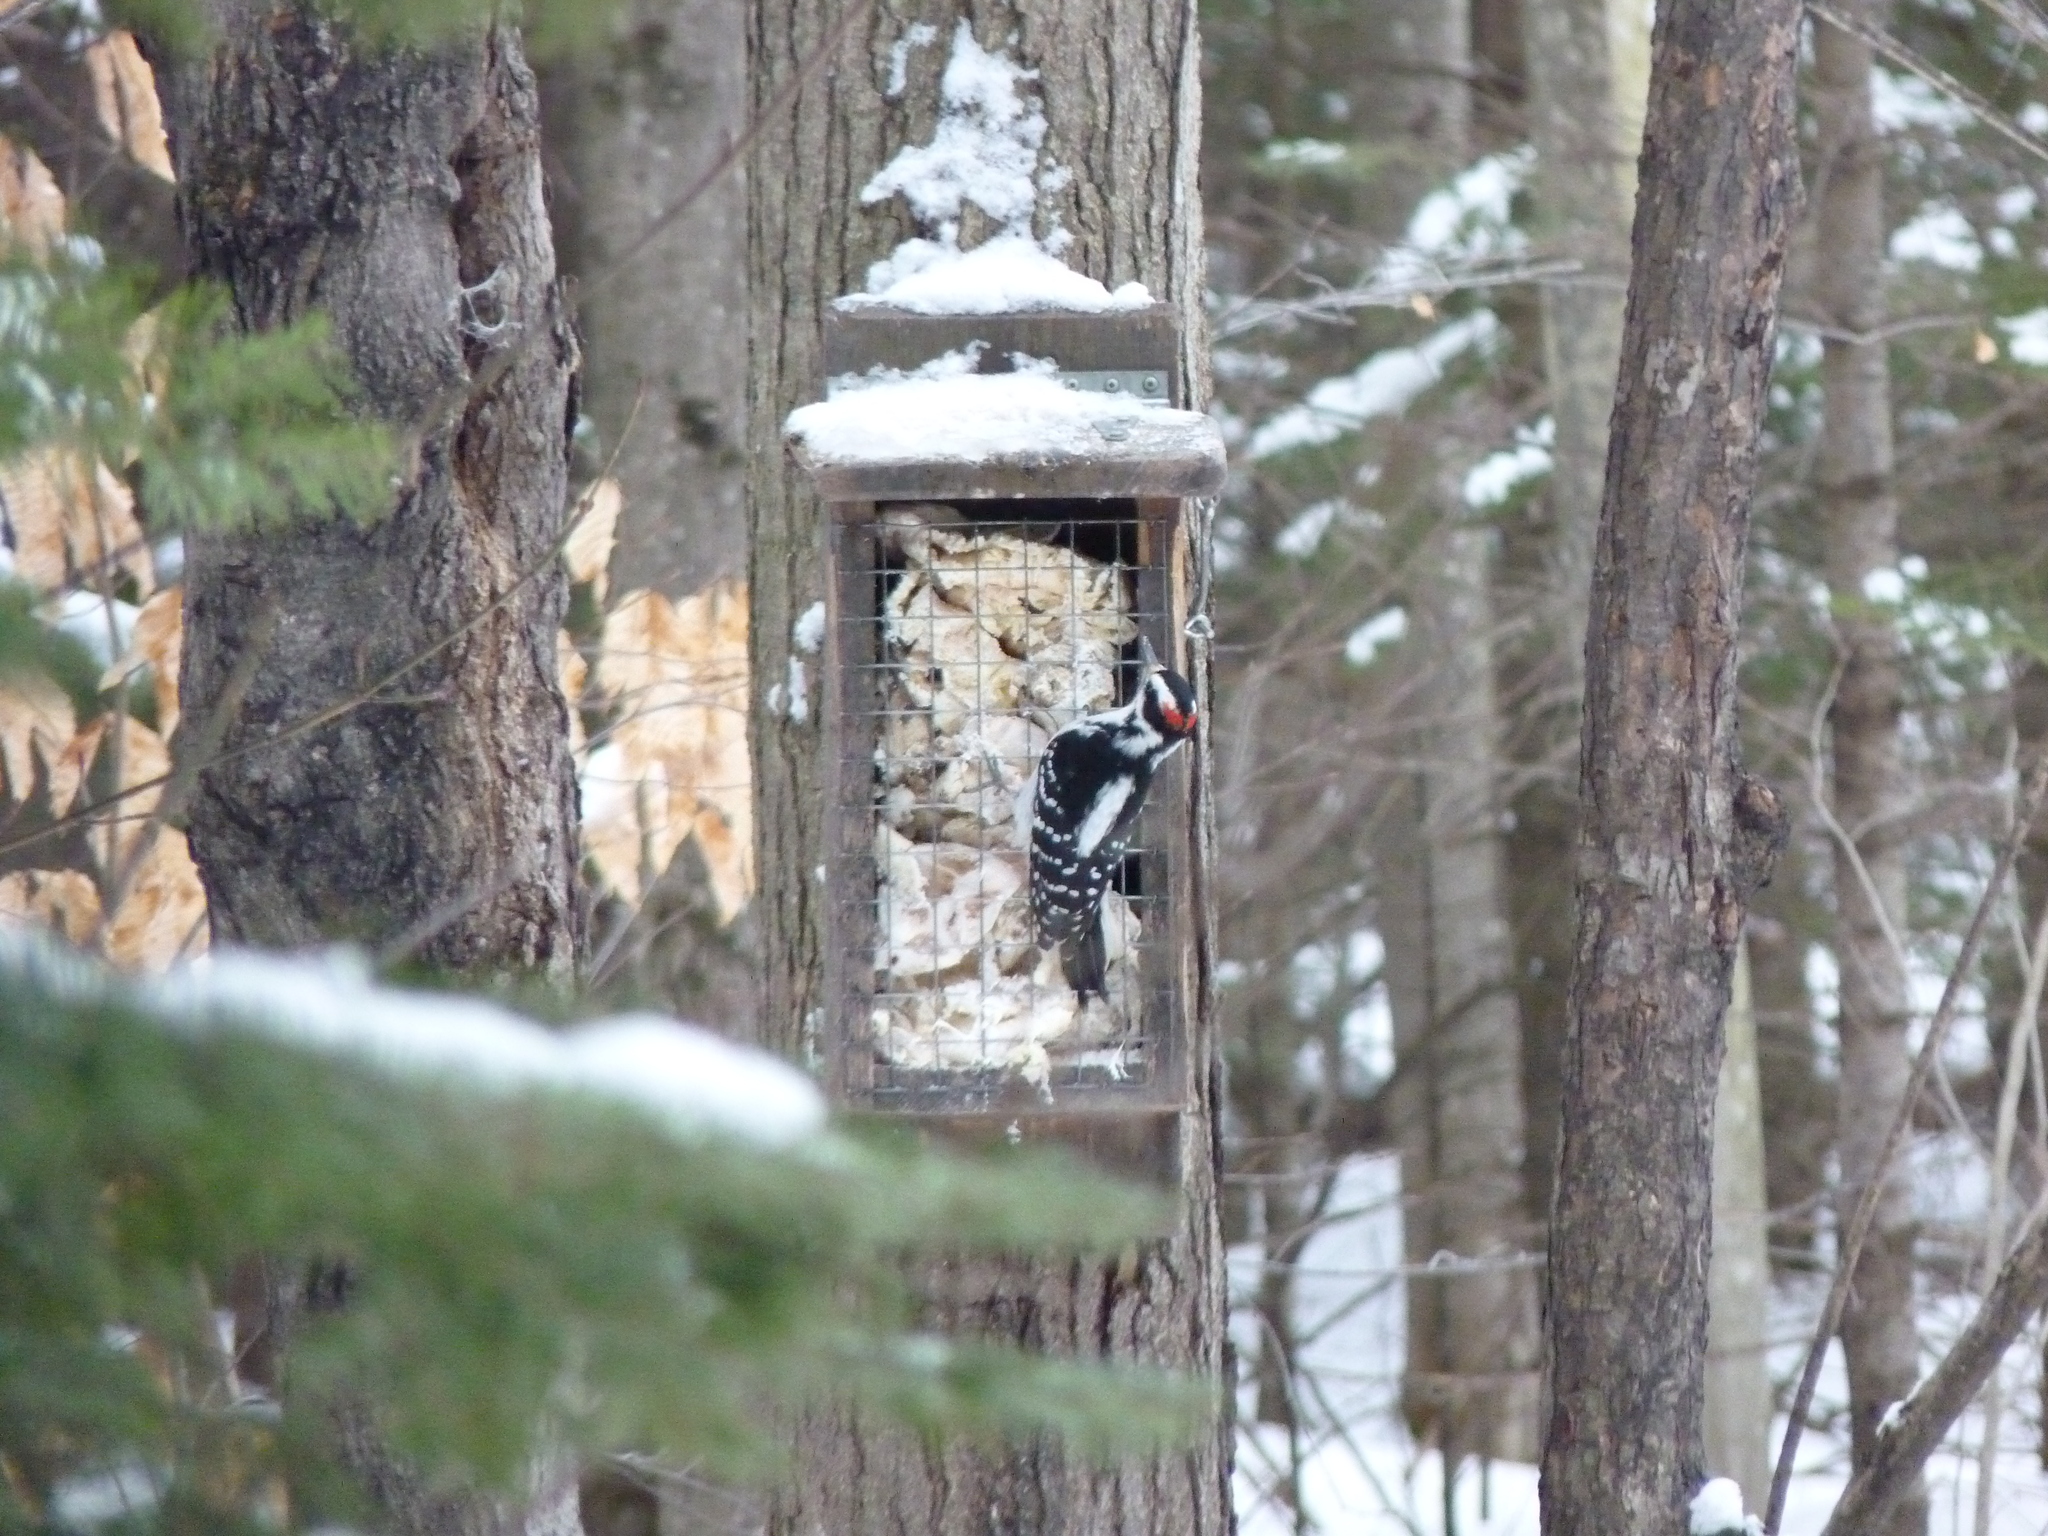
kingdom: Animalia
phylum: Chordata
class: Aves
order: Piciformes
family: Picidae
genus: Leuconotopicus
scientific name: Leuconotopicus villosus
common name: Hairy woodpecker
